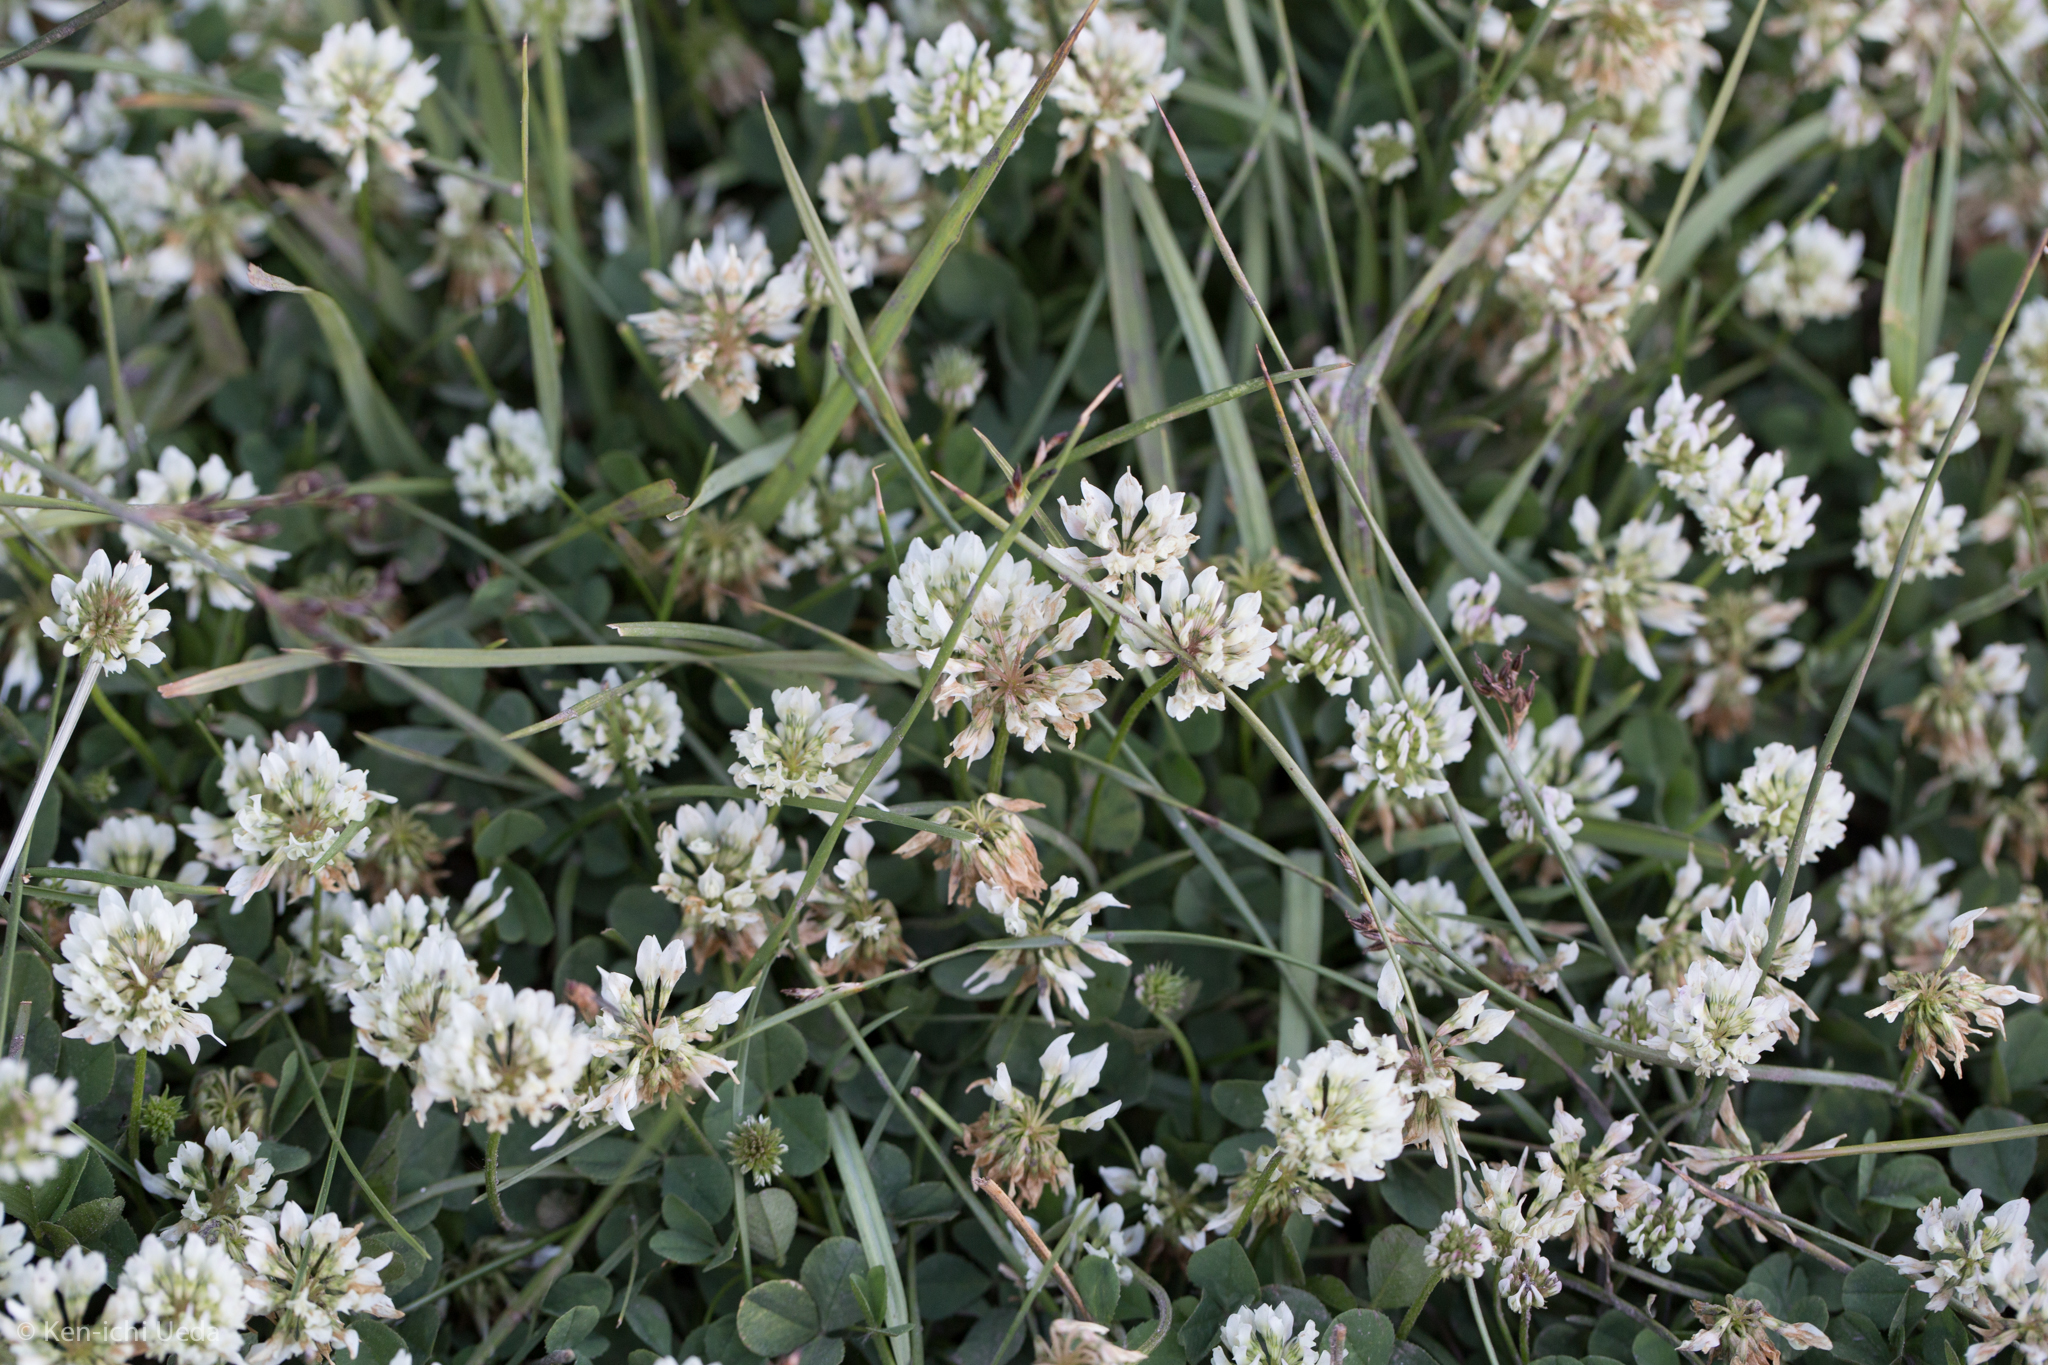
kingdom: Plantae
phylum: Tracheophyta
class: Magnoliopsida
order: Fabales
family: Fabaceae
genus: Trifolium
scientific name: Trifolium repens
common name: White clover
